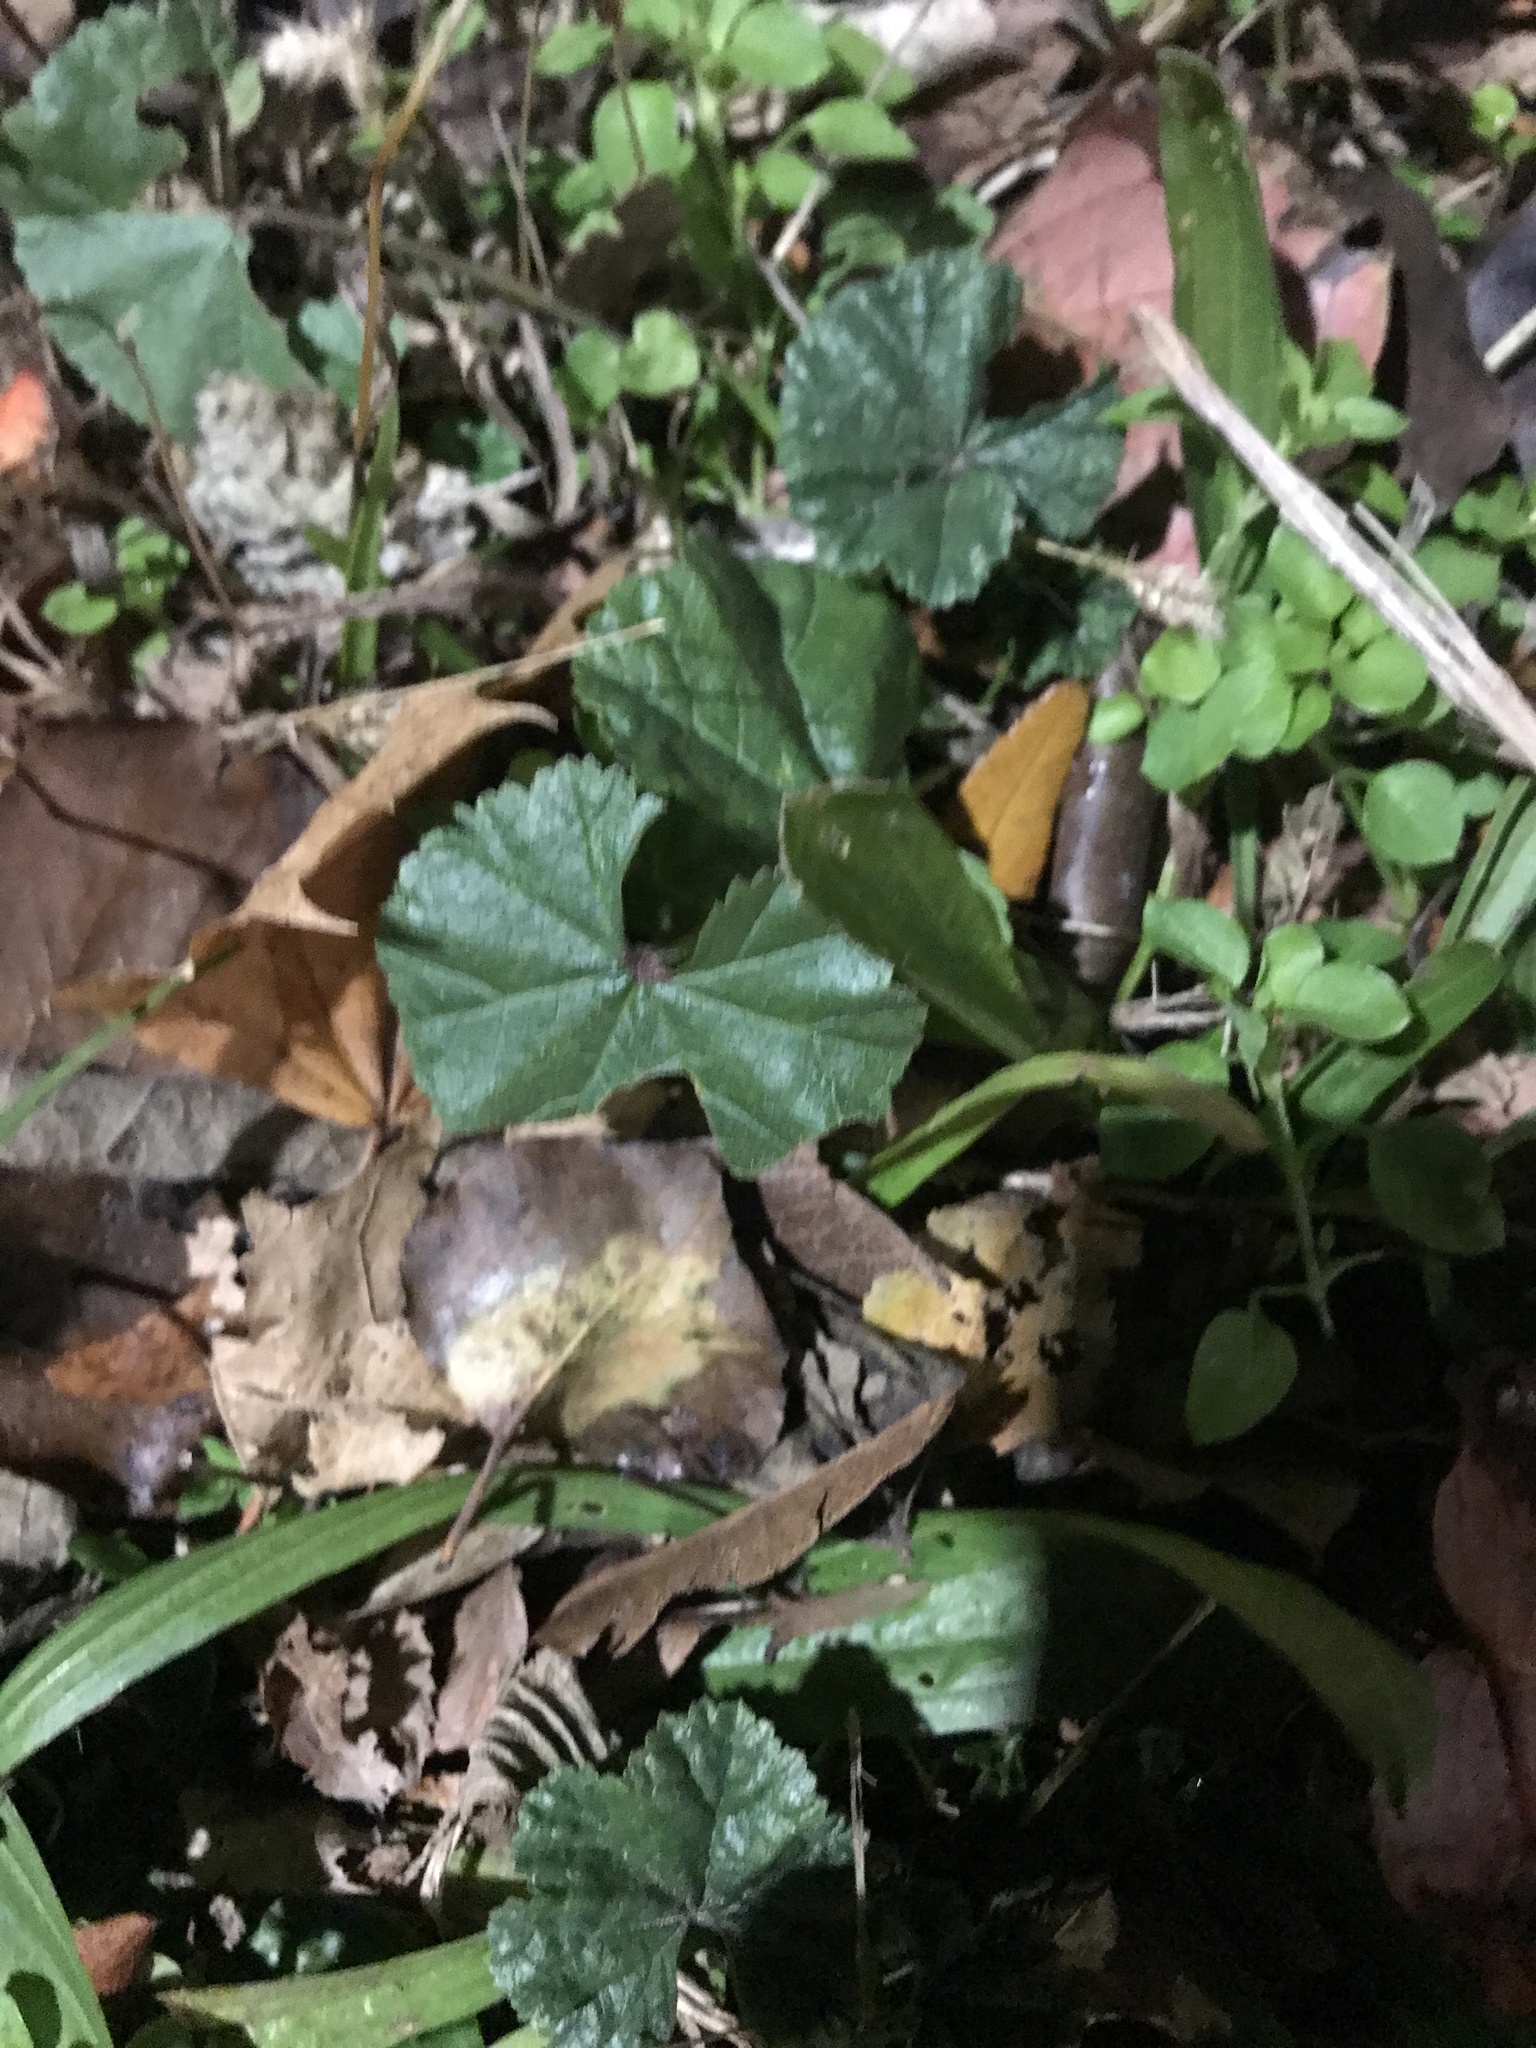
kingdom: Plantae
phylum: Tracheophyta
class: Magnoliopsida
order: Malvales
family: Malvaceae
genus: Malva
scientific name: Malva neglecta
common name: Common mallow
